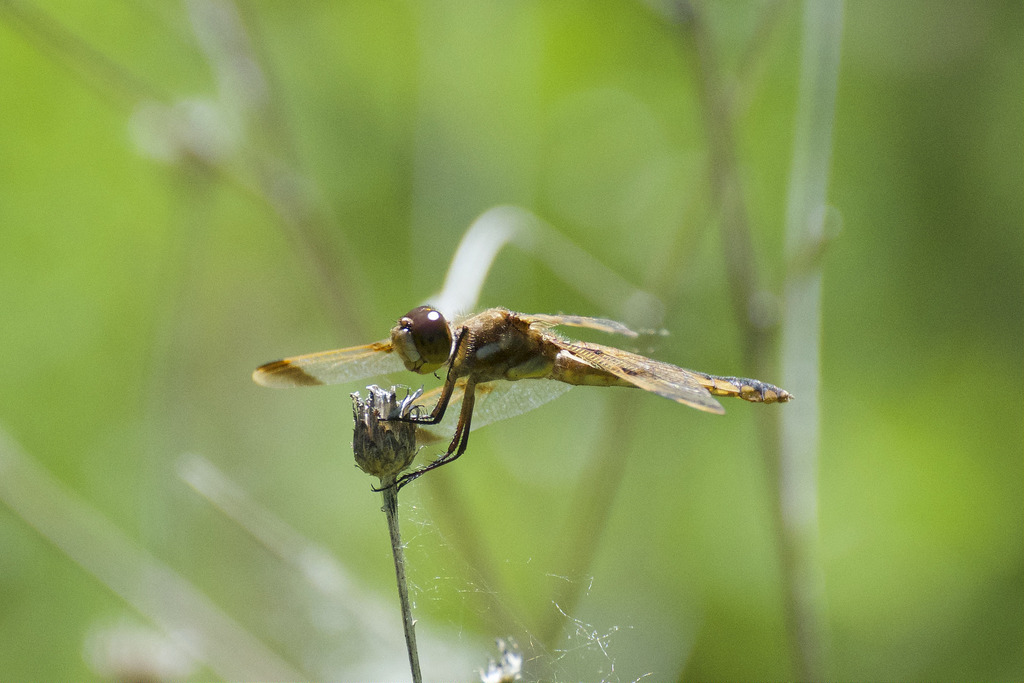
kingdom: Animalia
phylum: Arthropoda
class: Insecta
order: Odonata
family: Libellulidae
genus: Libellula
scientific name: Libellula semifasciata
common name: Painted skimmer
